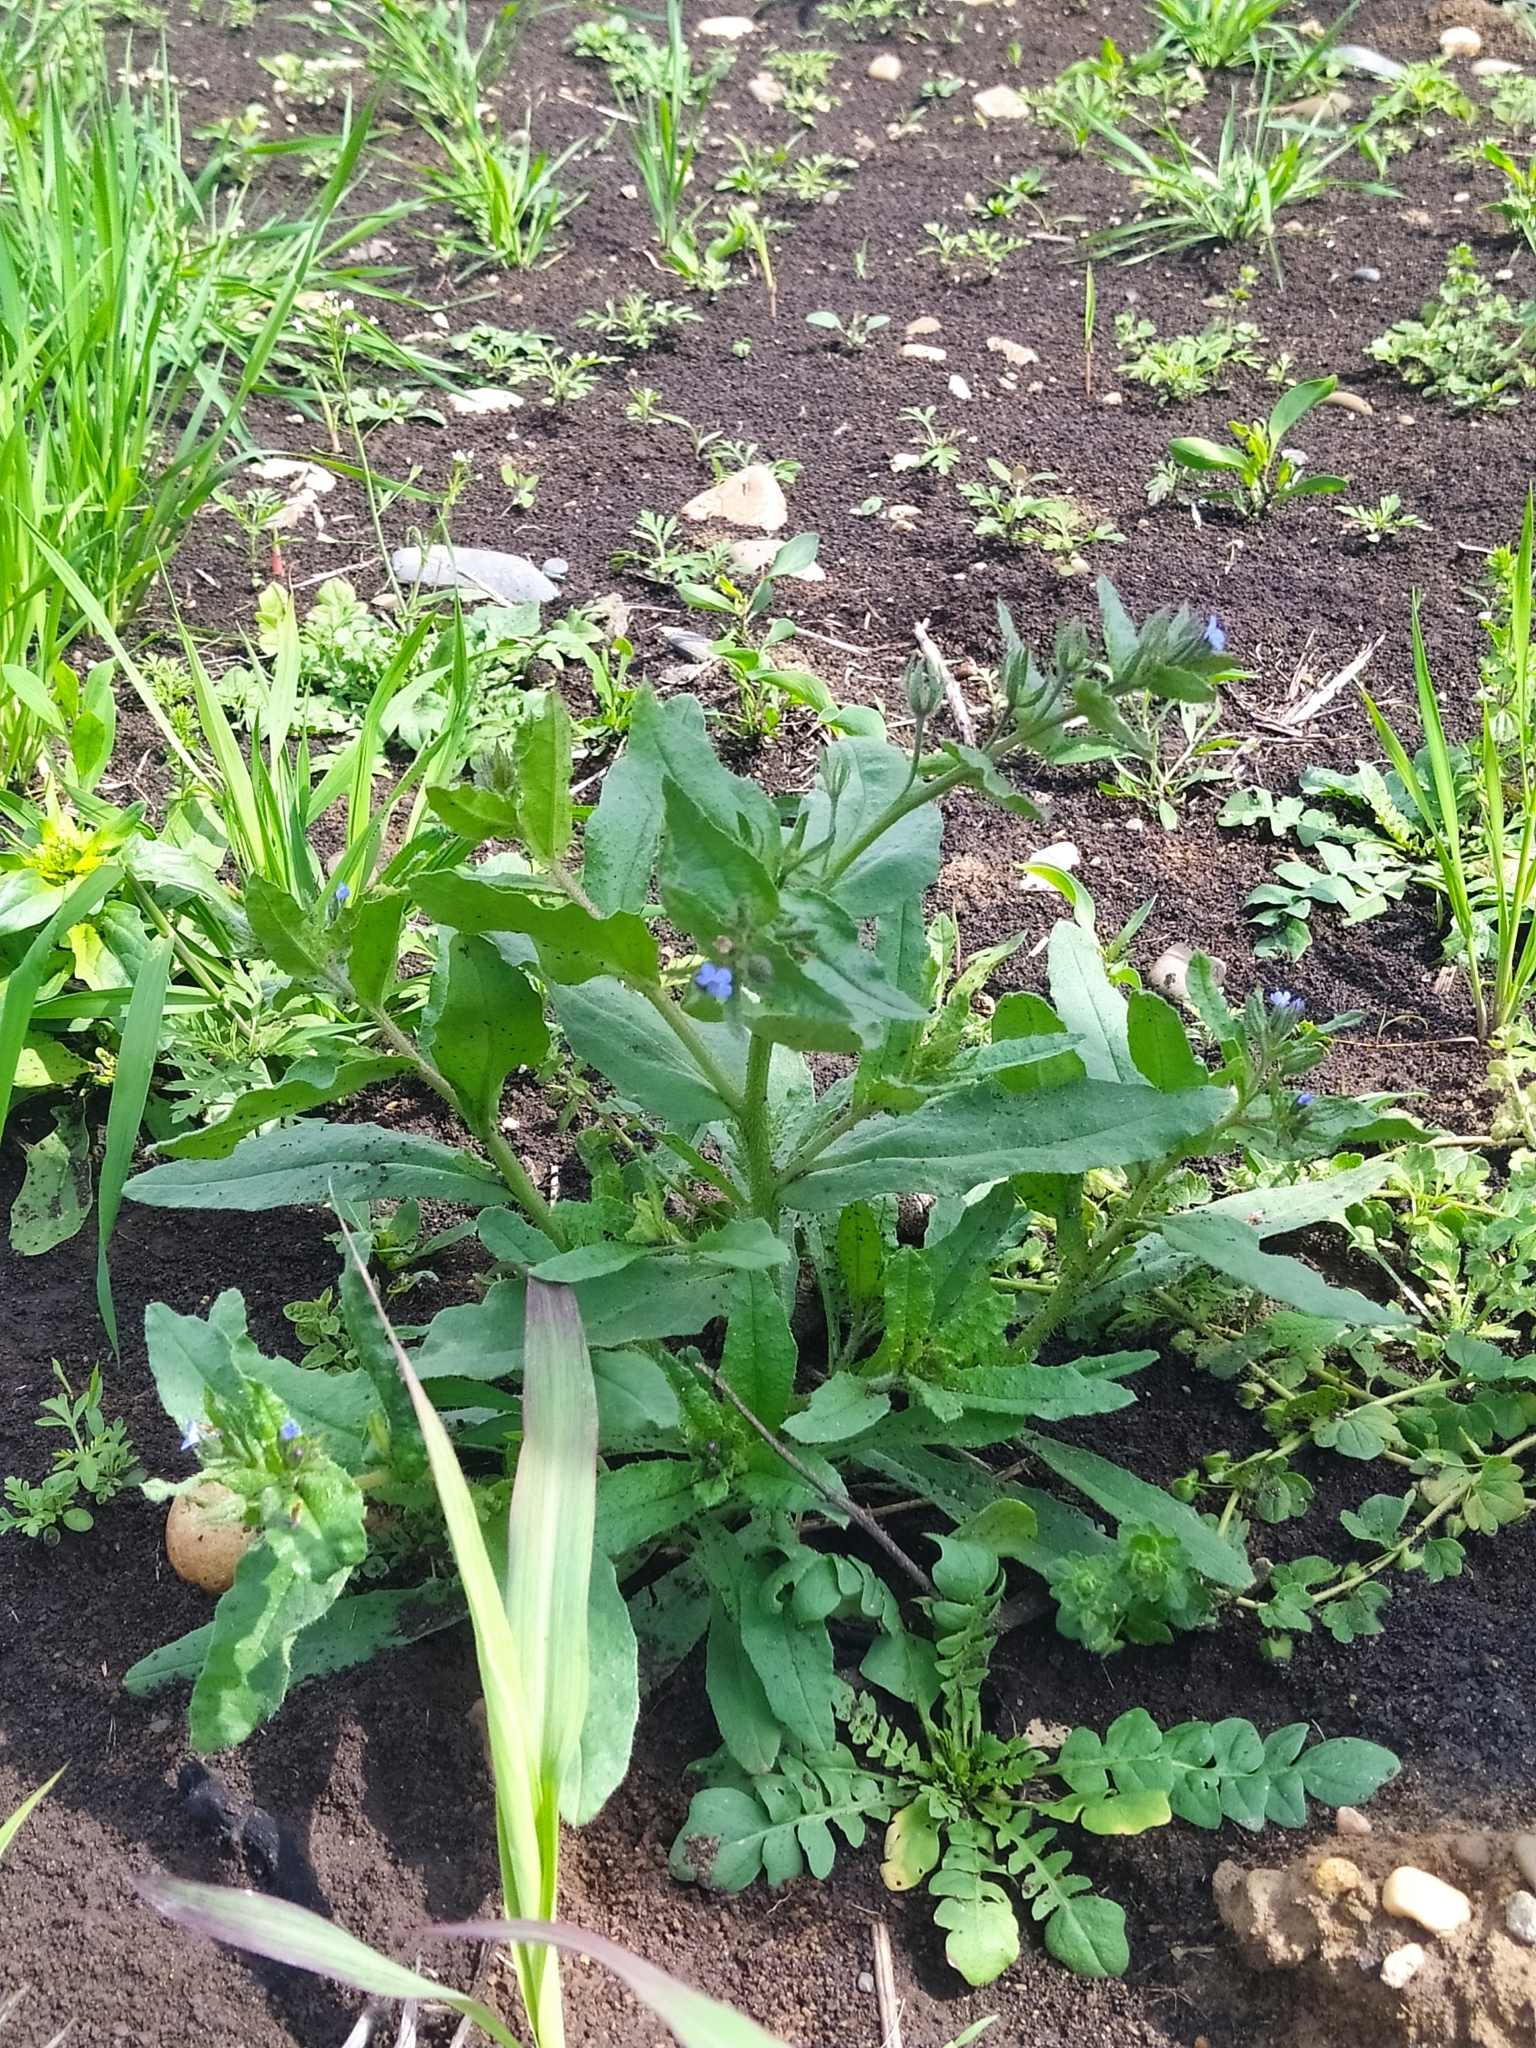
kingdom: Plantae
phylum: Tracheophyta
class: Magnoliopsida
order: Boraginales
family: Boraginaceae
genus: Lycopsis
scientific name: Lycopsis arvensis
